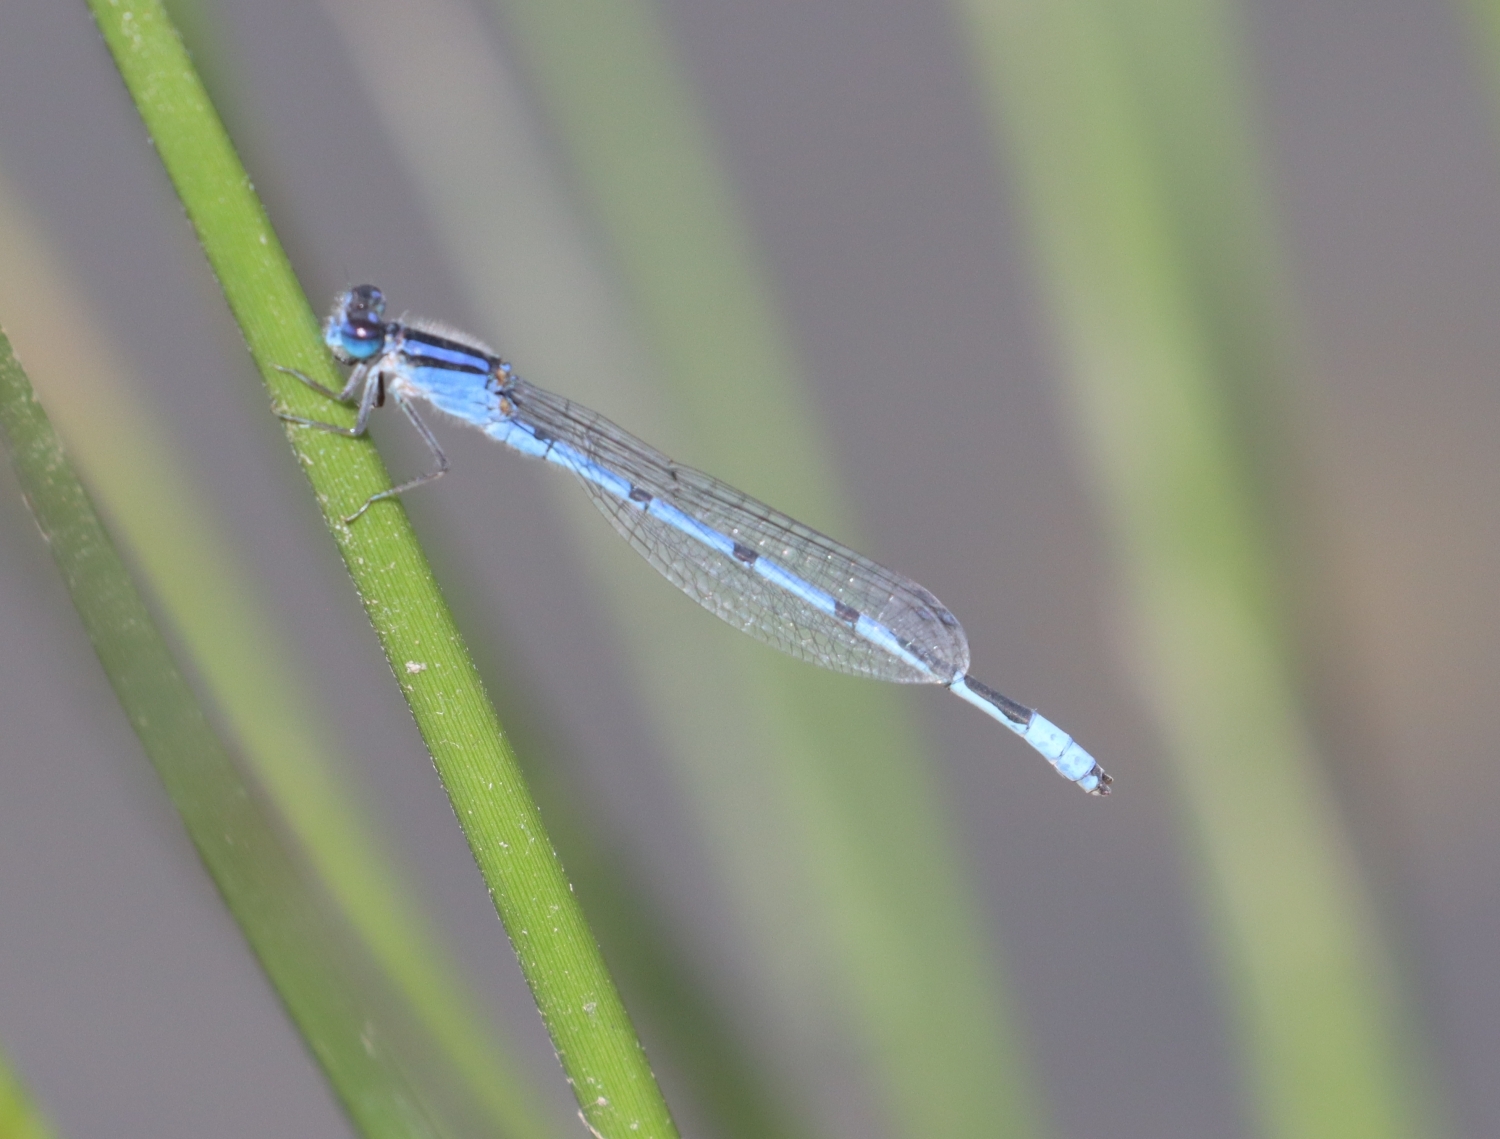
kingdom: Animalia
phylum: Arthropoda
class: Insecta
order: Odonata
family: Coenagrionidae
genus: Enallagma
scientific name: Enallagma civile
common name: Damselfly
